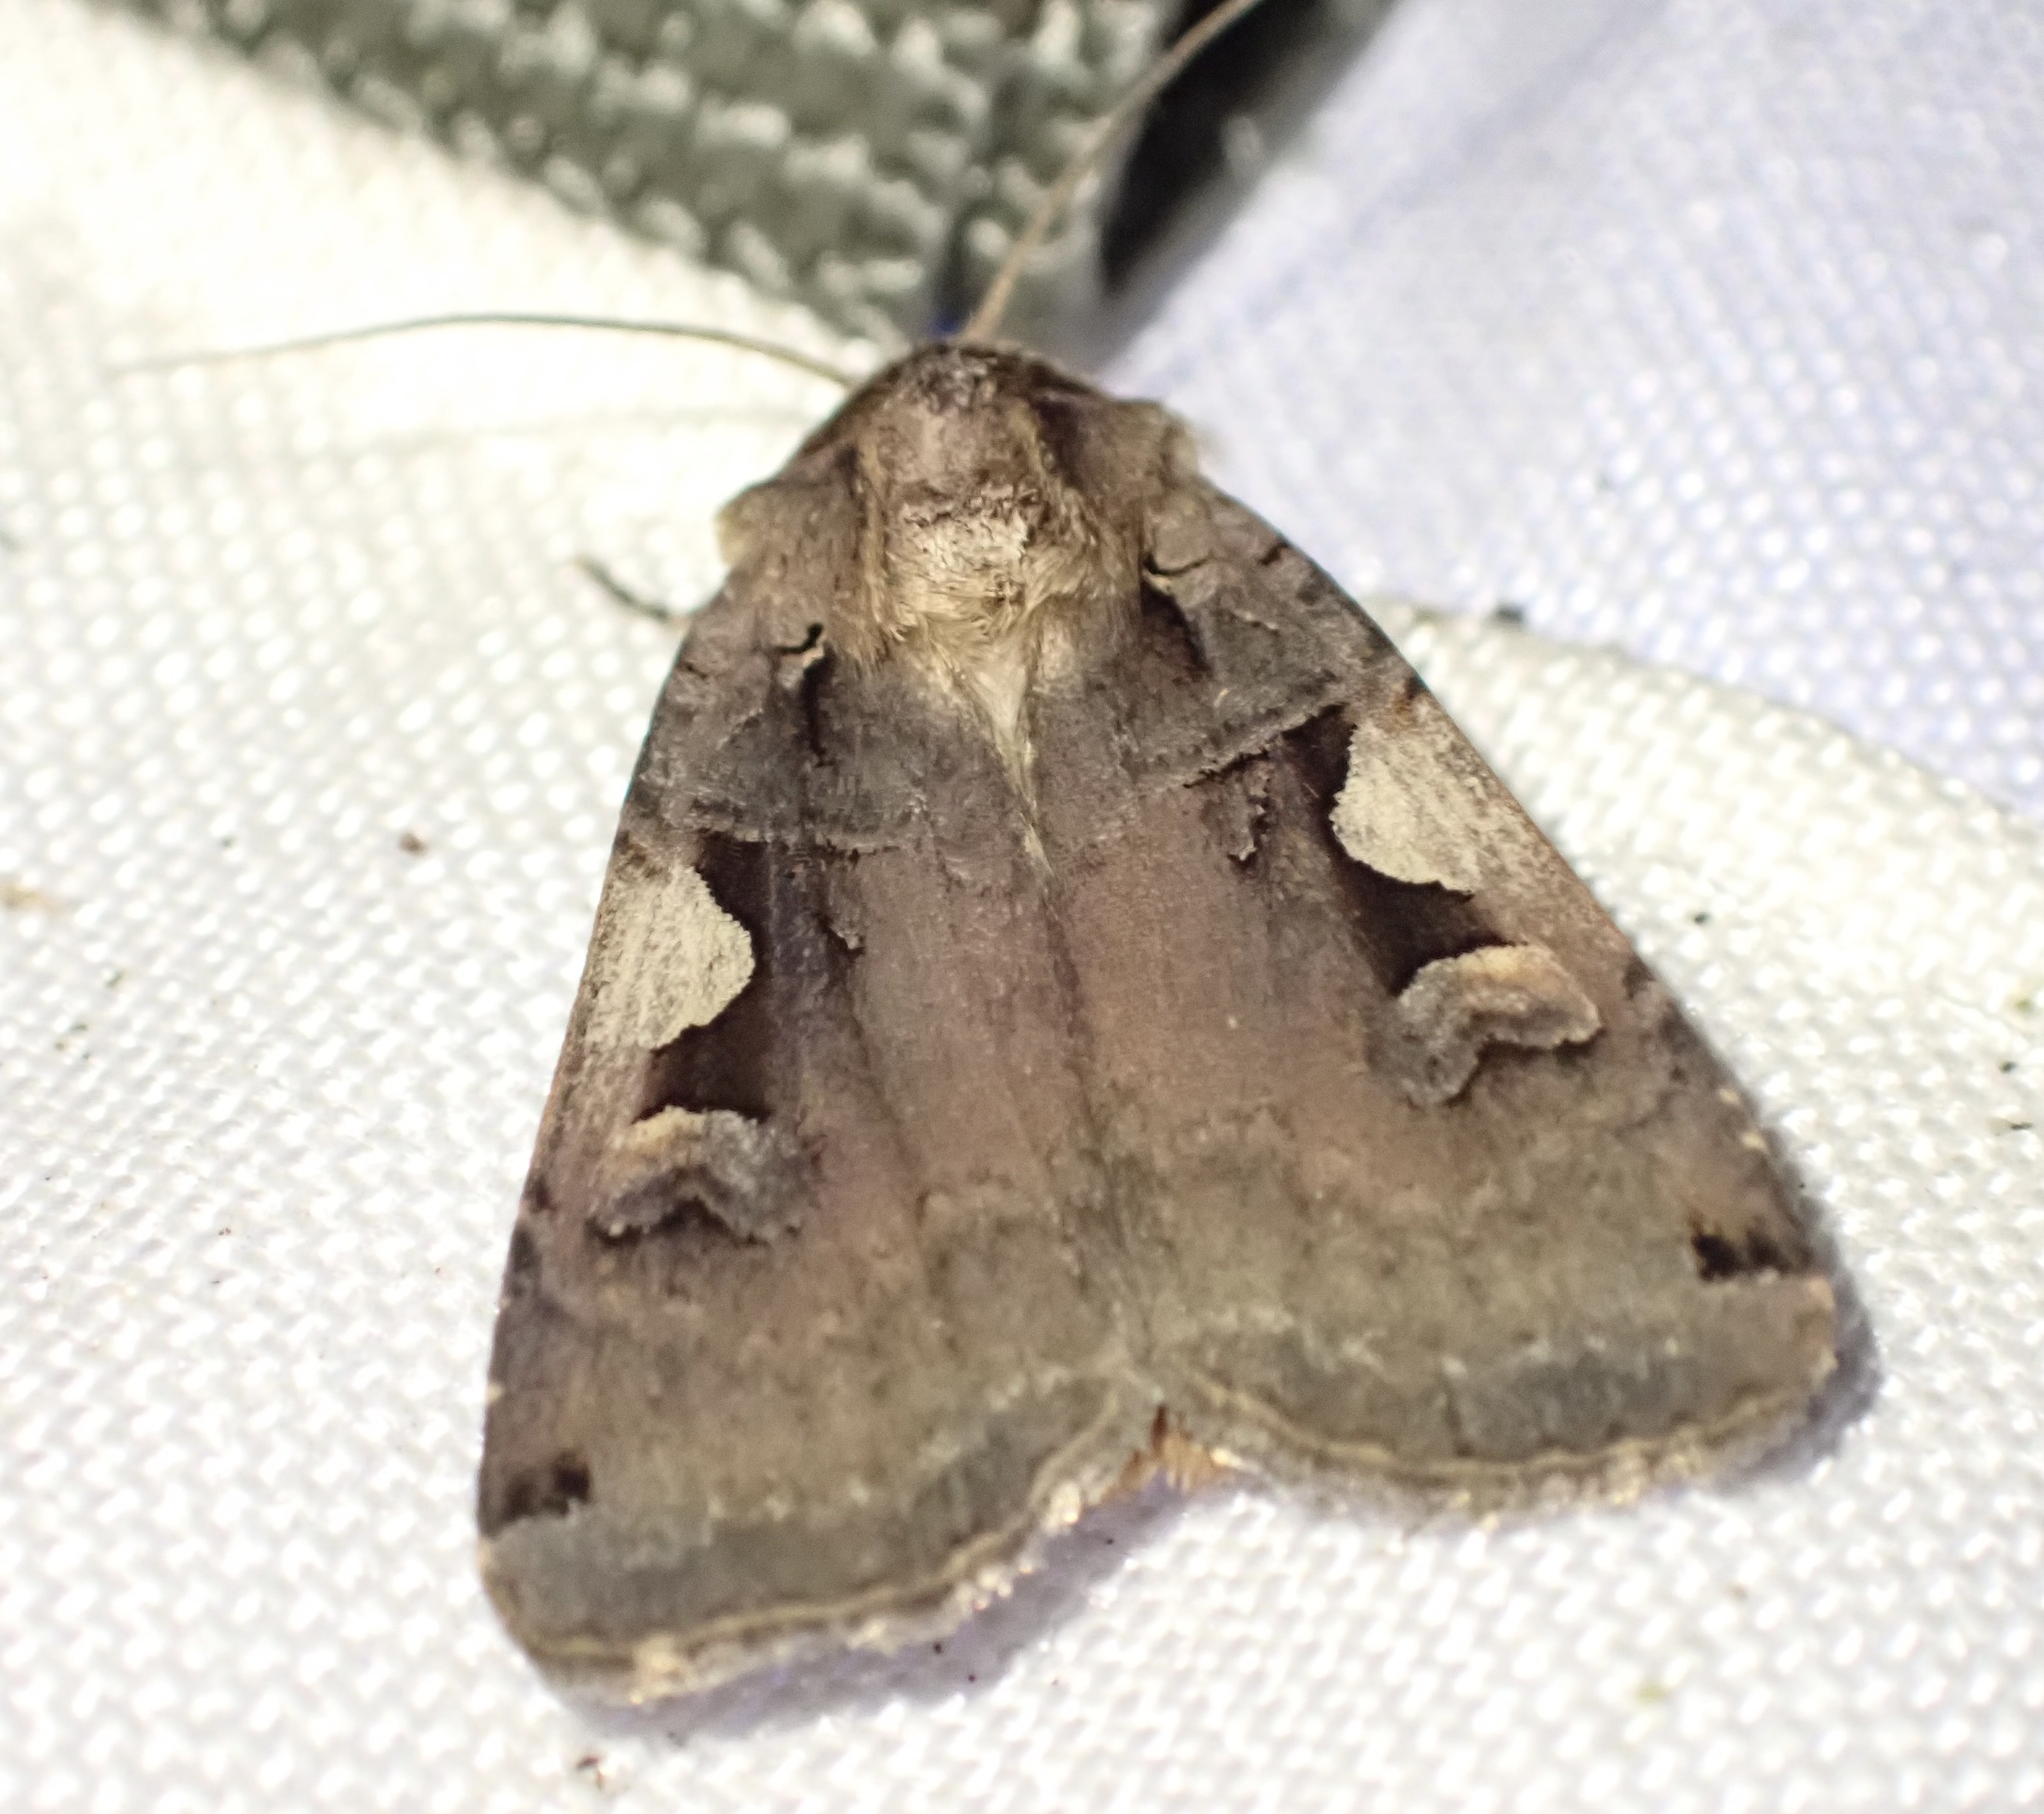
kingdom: Animalia
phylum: Arthropoda
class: Insecta
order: Lepidoptera
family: Noctuidae
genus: Xestia
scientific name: Xestia c-nigrum
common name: Setaceous hebrew character
